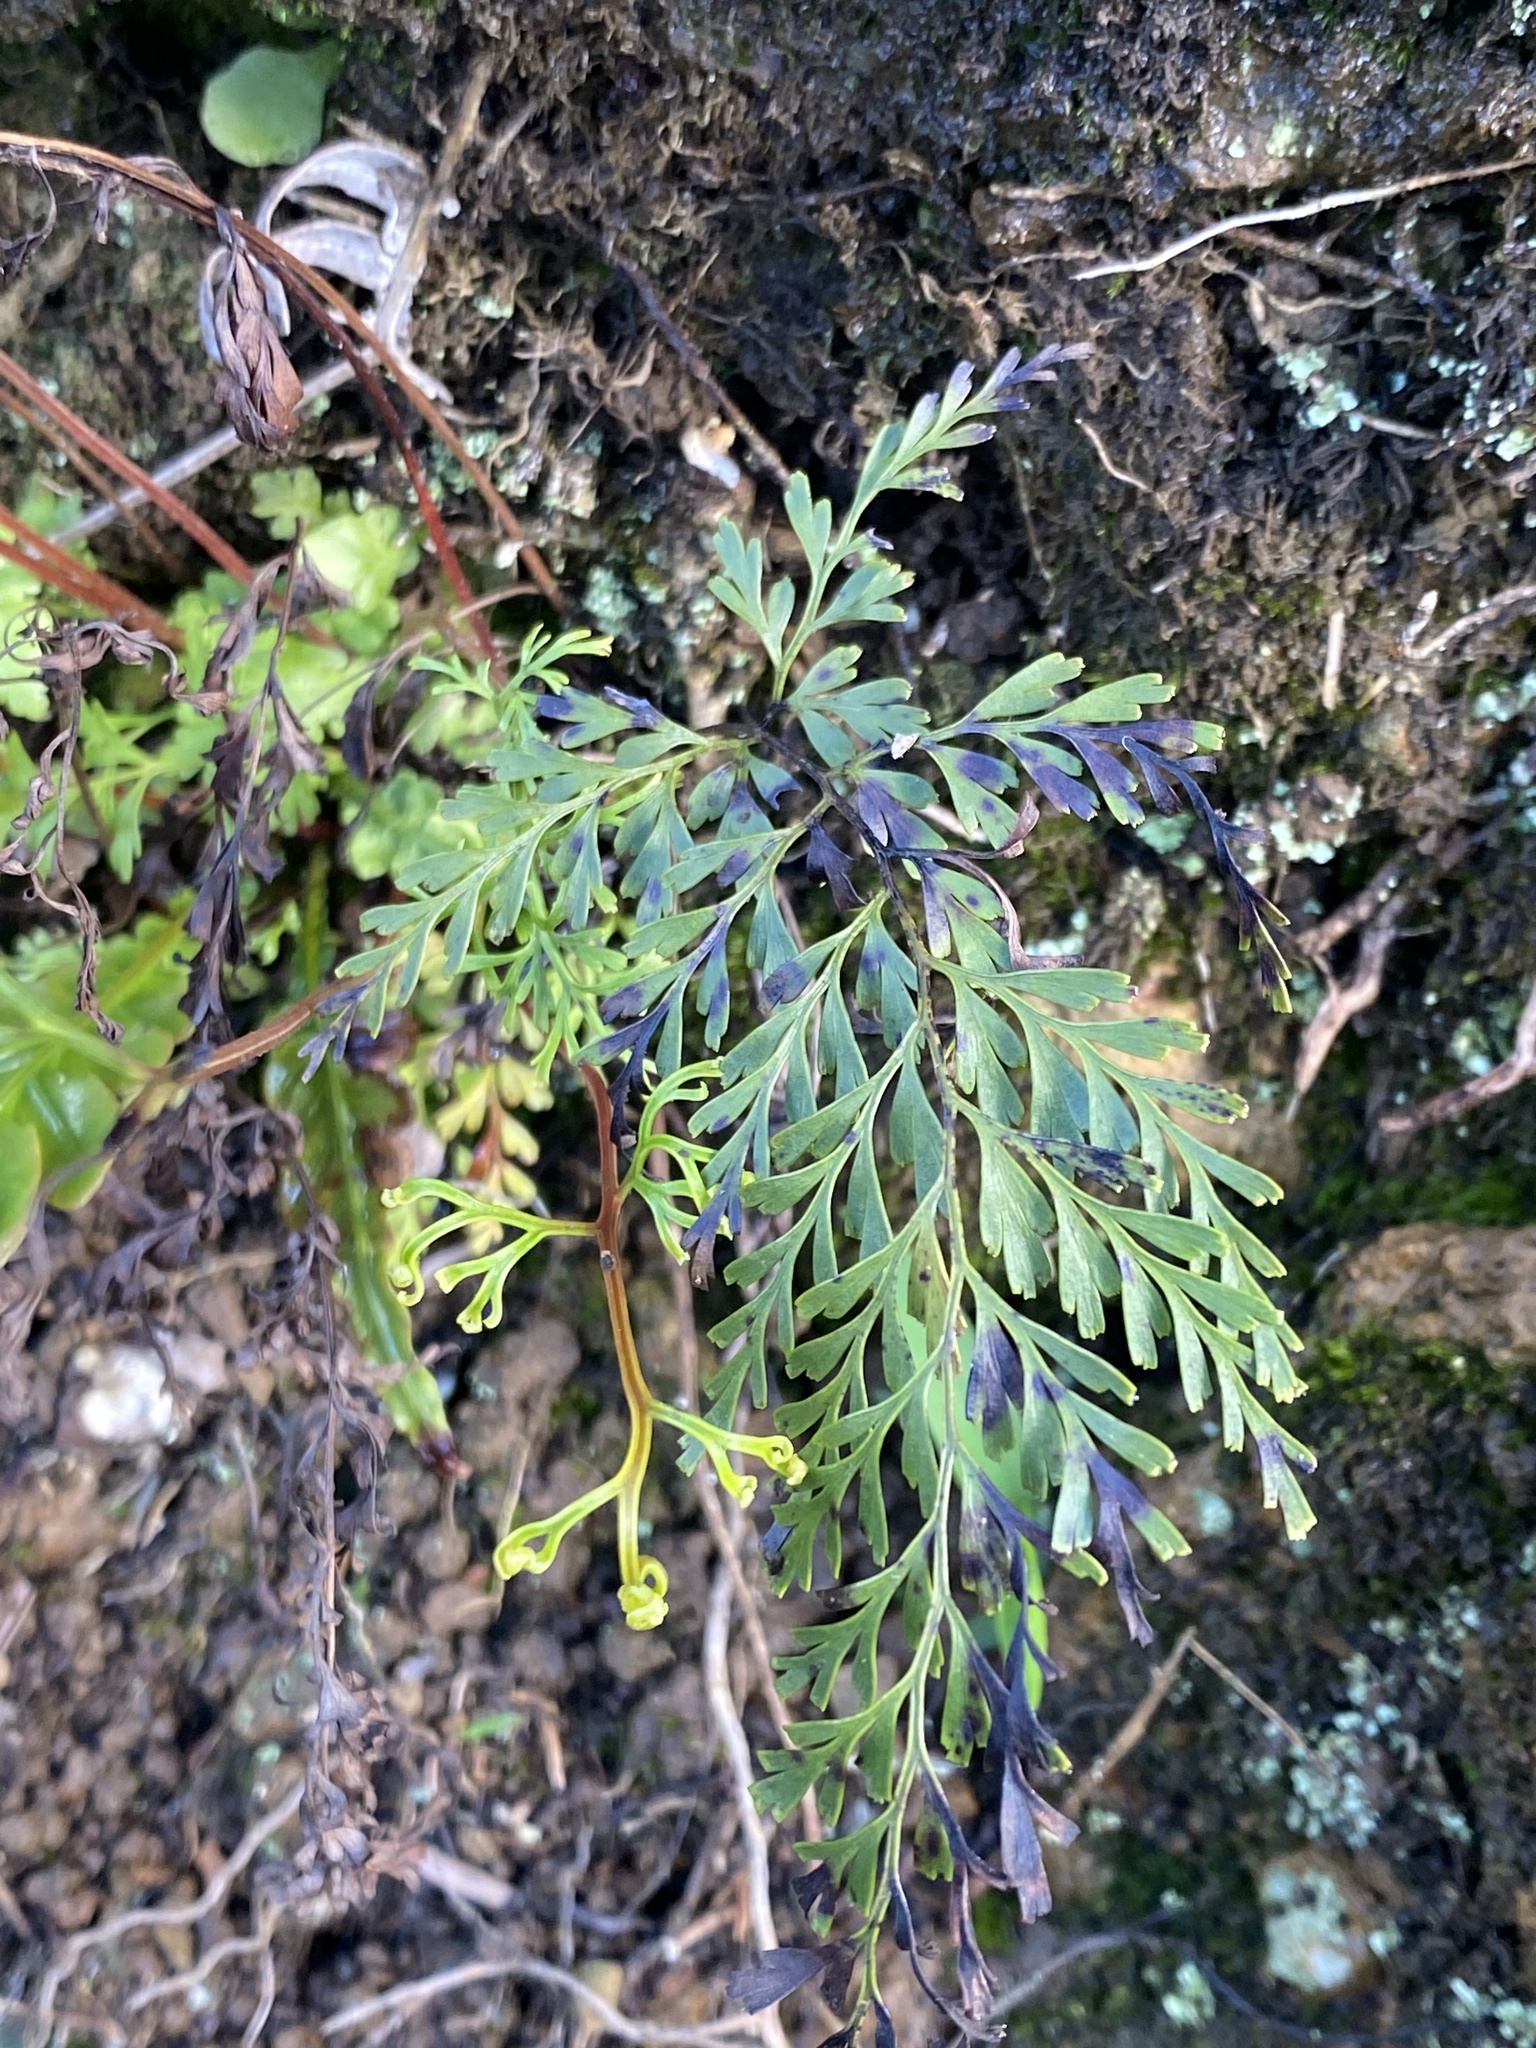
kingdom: Plantae
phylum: Tracheophyta
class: Polypodiopsida
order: Polypodiales
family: Lindsaeaceae
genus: Odontosoria
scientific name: Odontosoria chinensis
